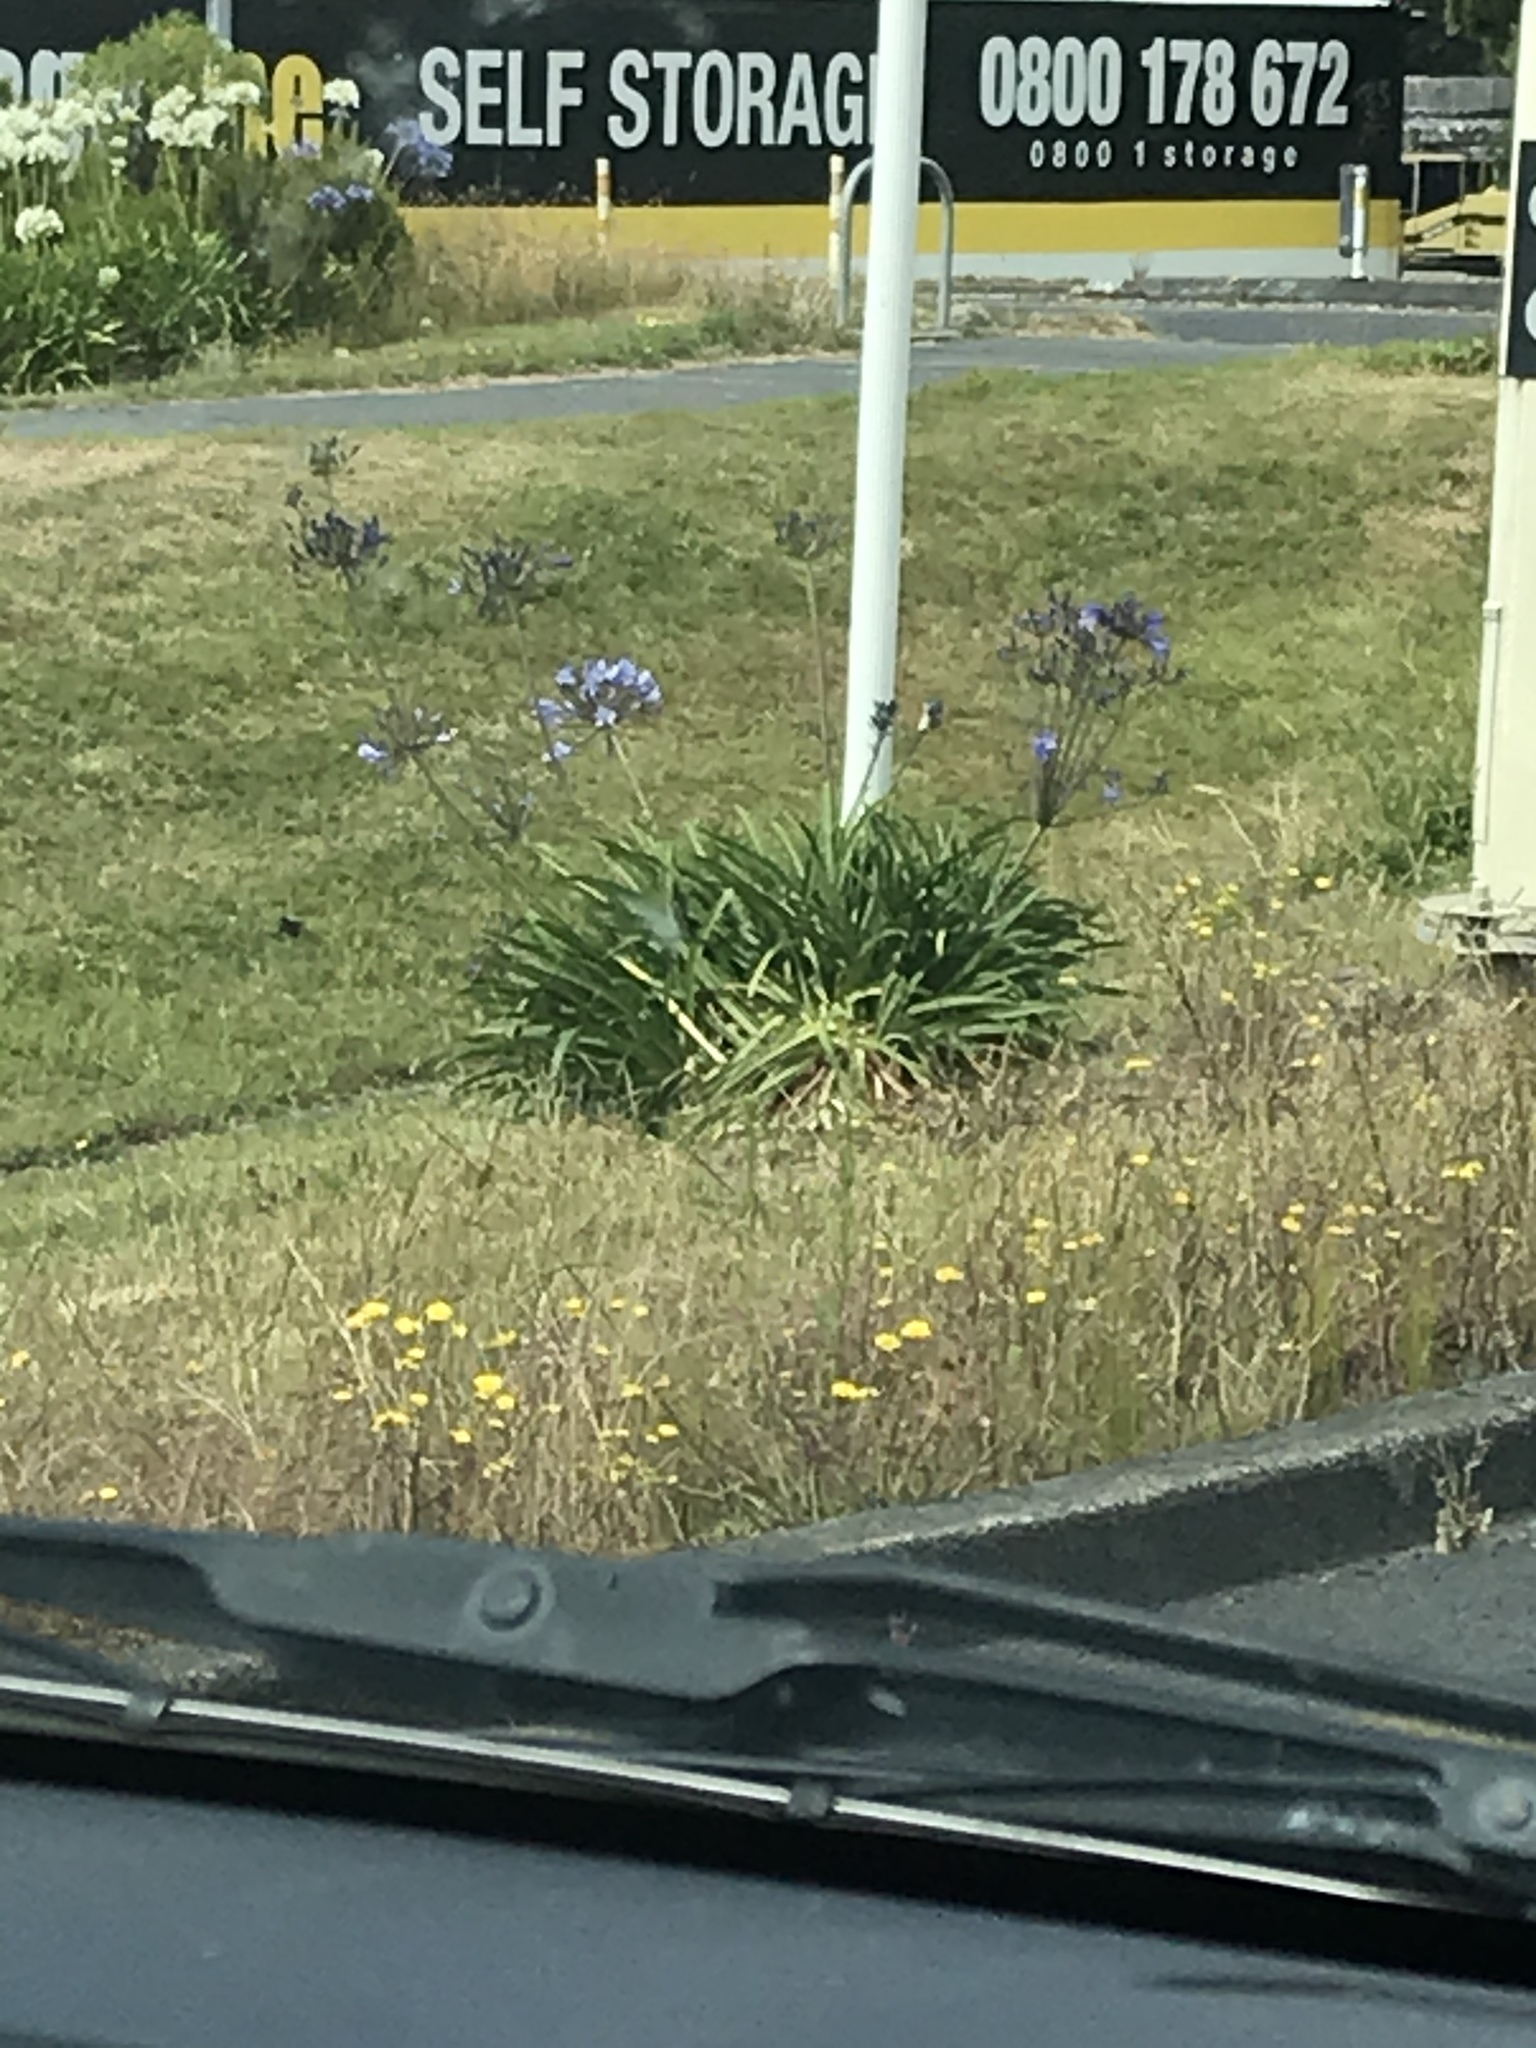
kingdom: Plantae
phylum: Tracheophyta
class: Liliopsida
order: Asparagales
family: Amaryllidaceae
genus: Agapanthus
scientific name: Agapanthus praecox
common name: African-lily
